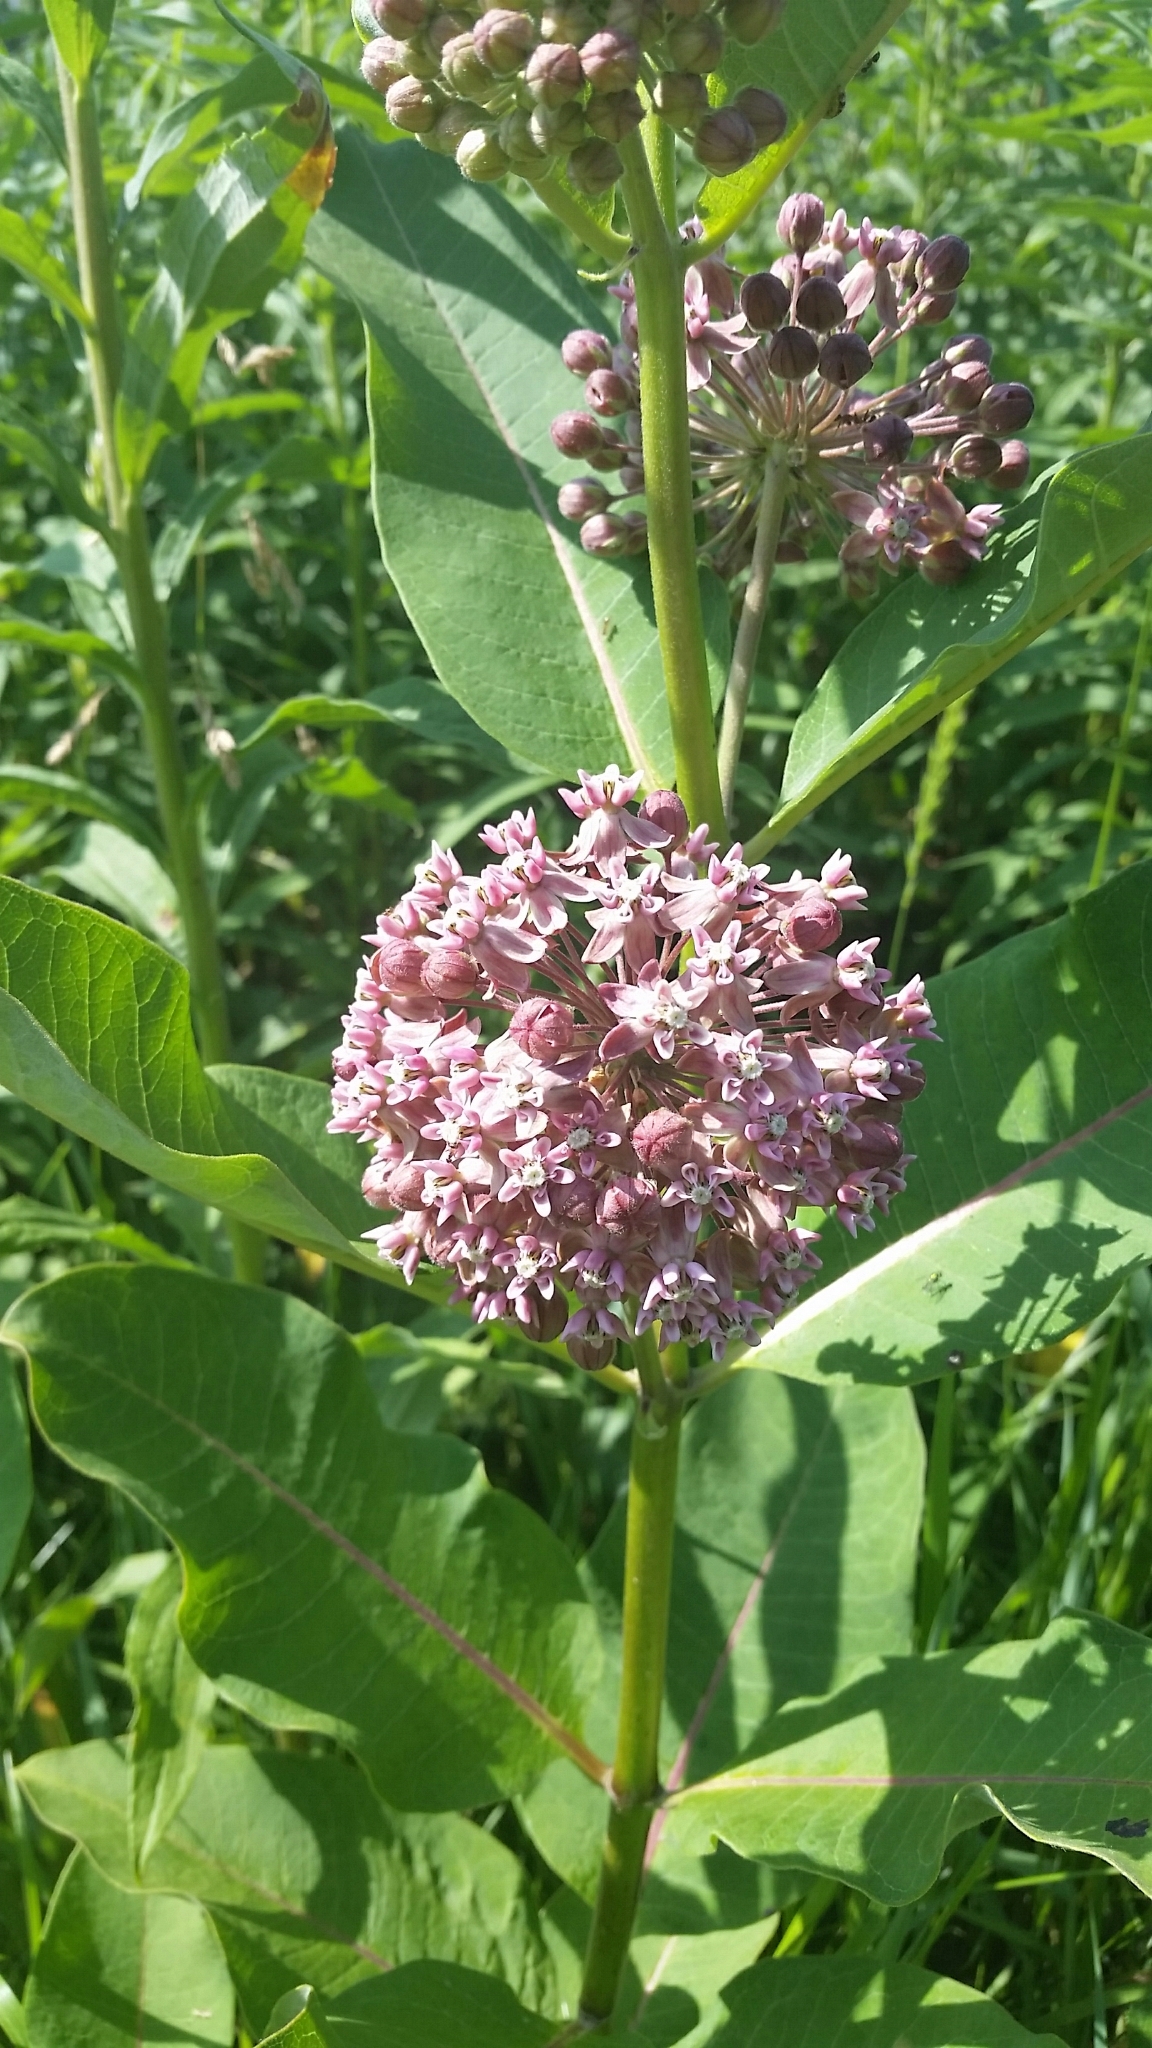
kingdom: Plantae
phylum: Tracheophyta
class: Magnoliopsida
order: Gentianales
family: Apocynaceae
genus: Asclepias
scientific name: Asclepias syriaca
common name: Common milkweed
